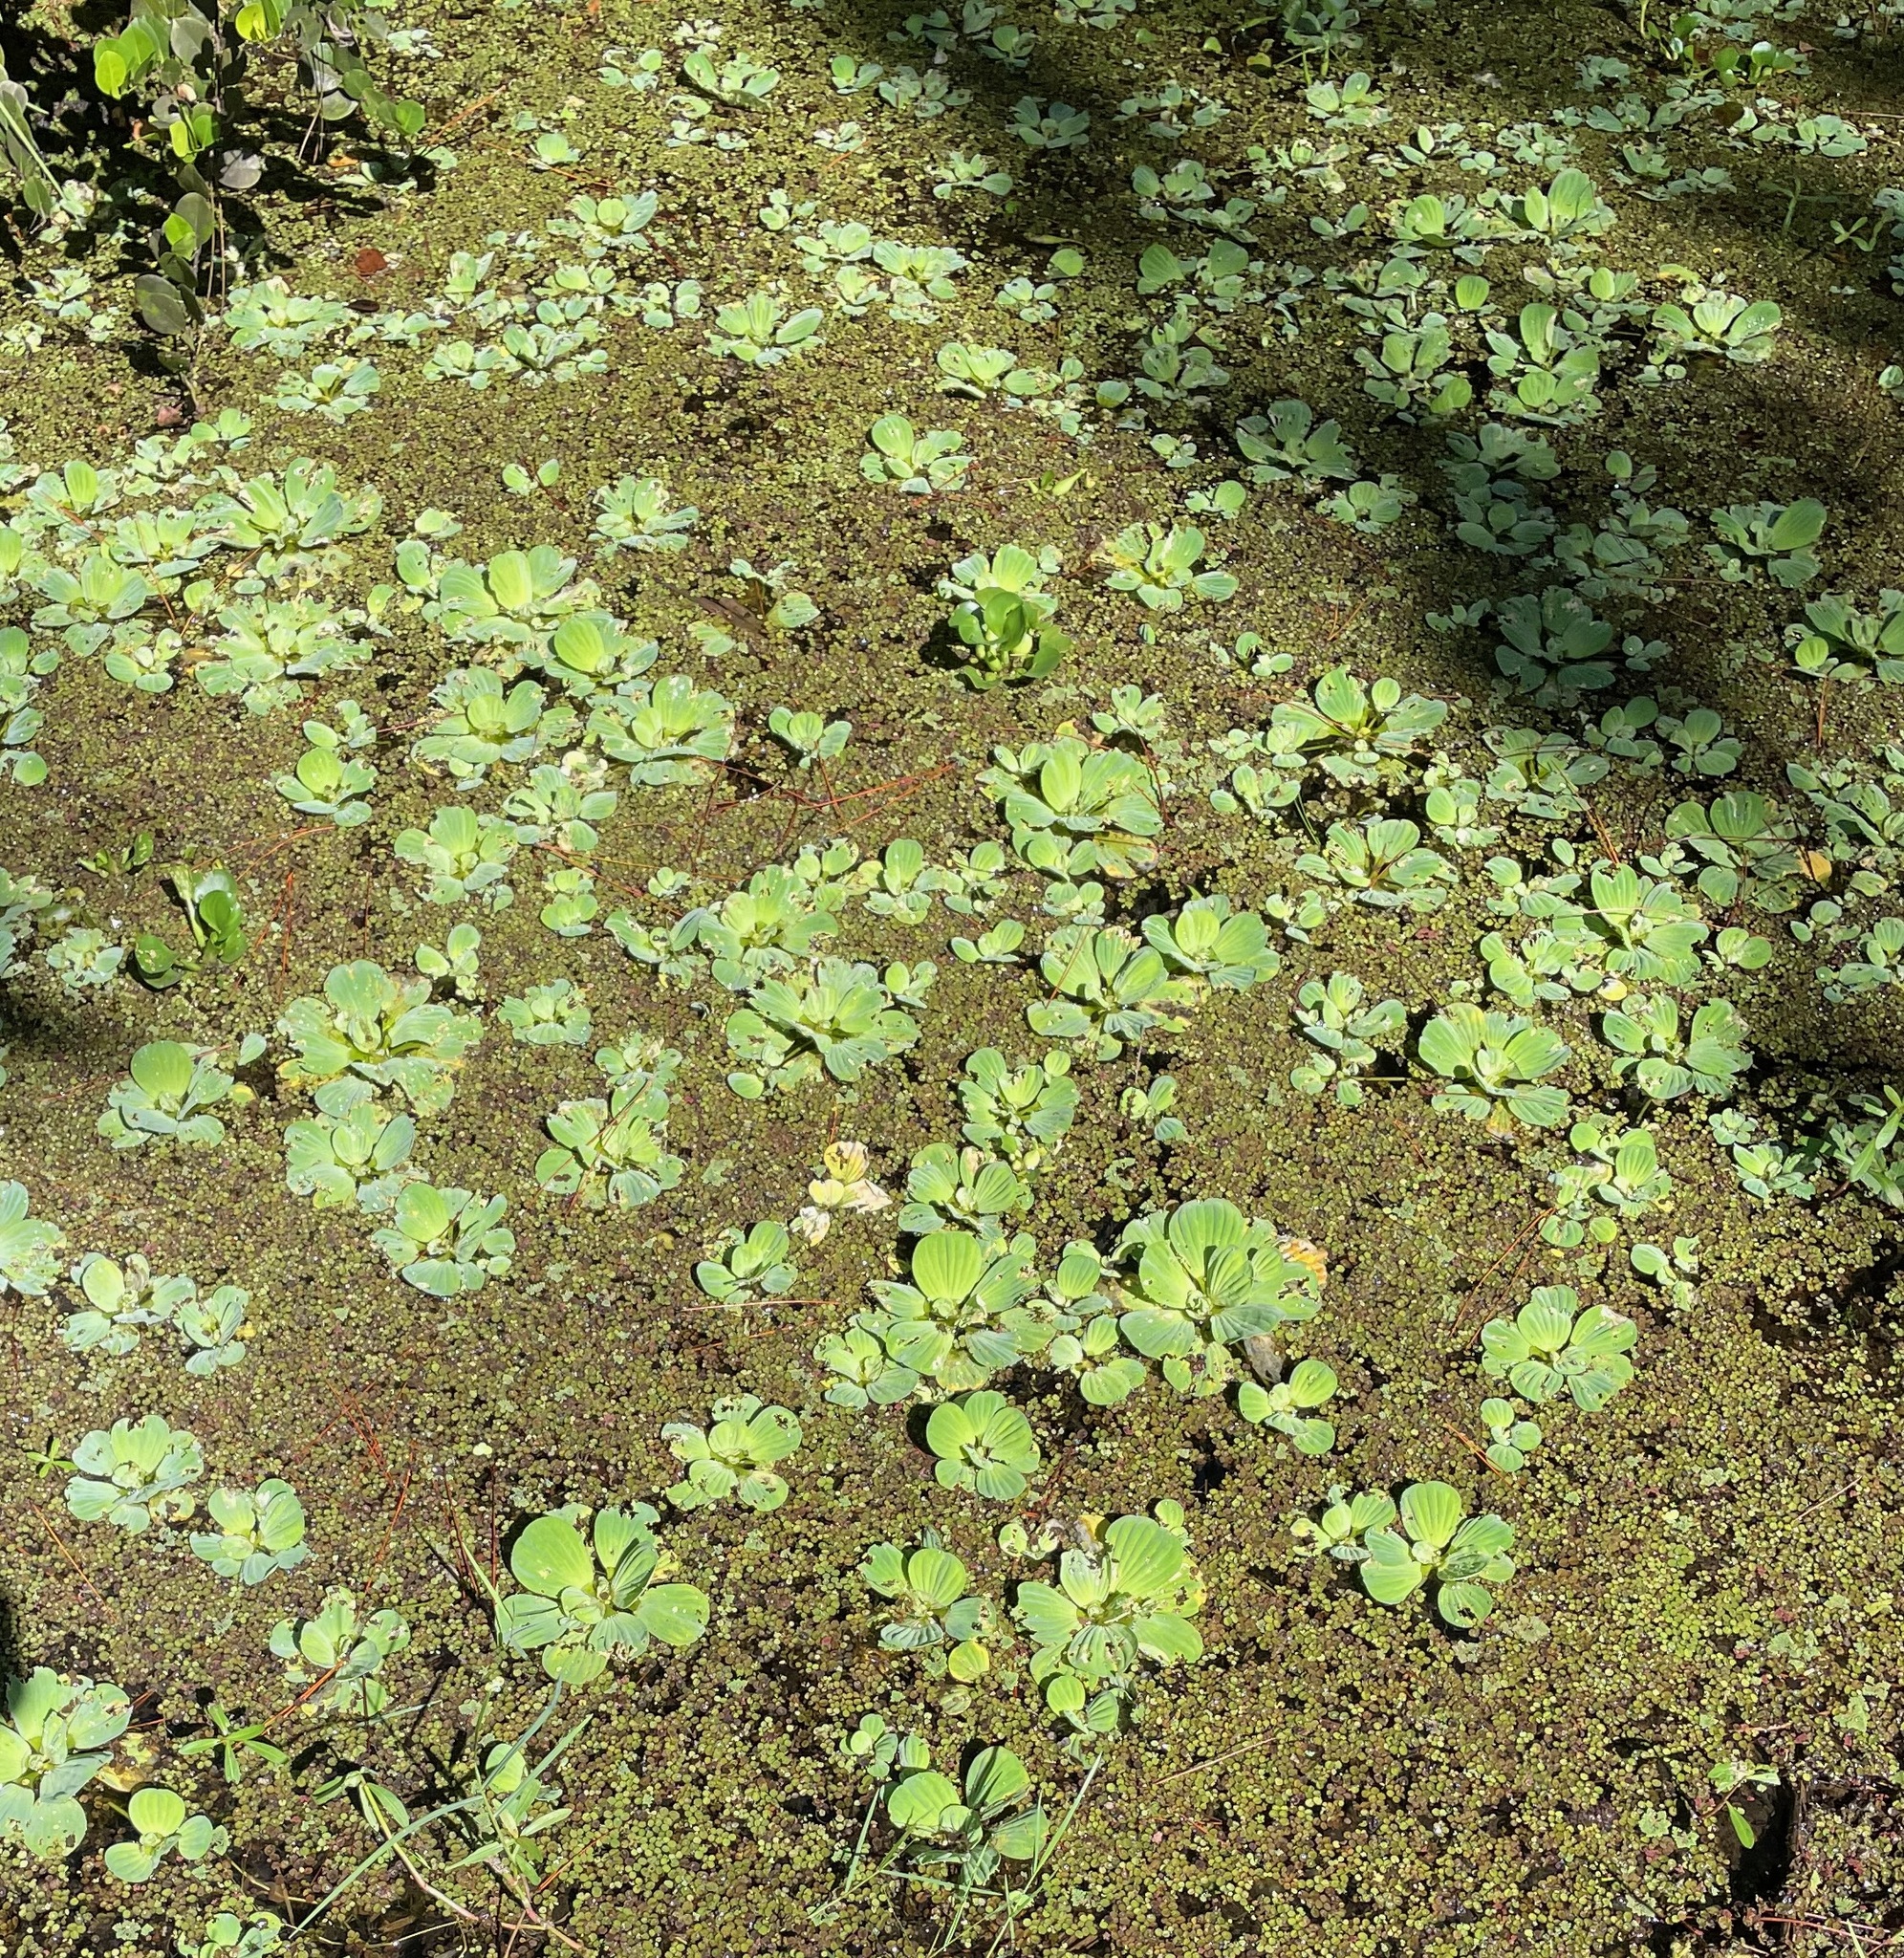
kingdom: Plantae
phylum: Tracheophyta
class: Liliopsida
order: Alismatales
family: Araceae
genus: Pistia
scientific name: Pistia stratiotes
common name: Water lettuce
